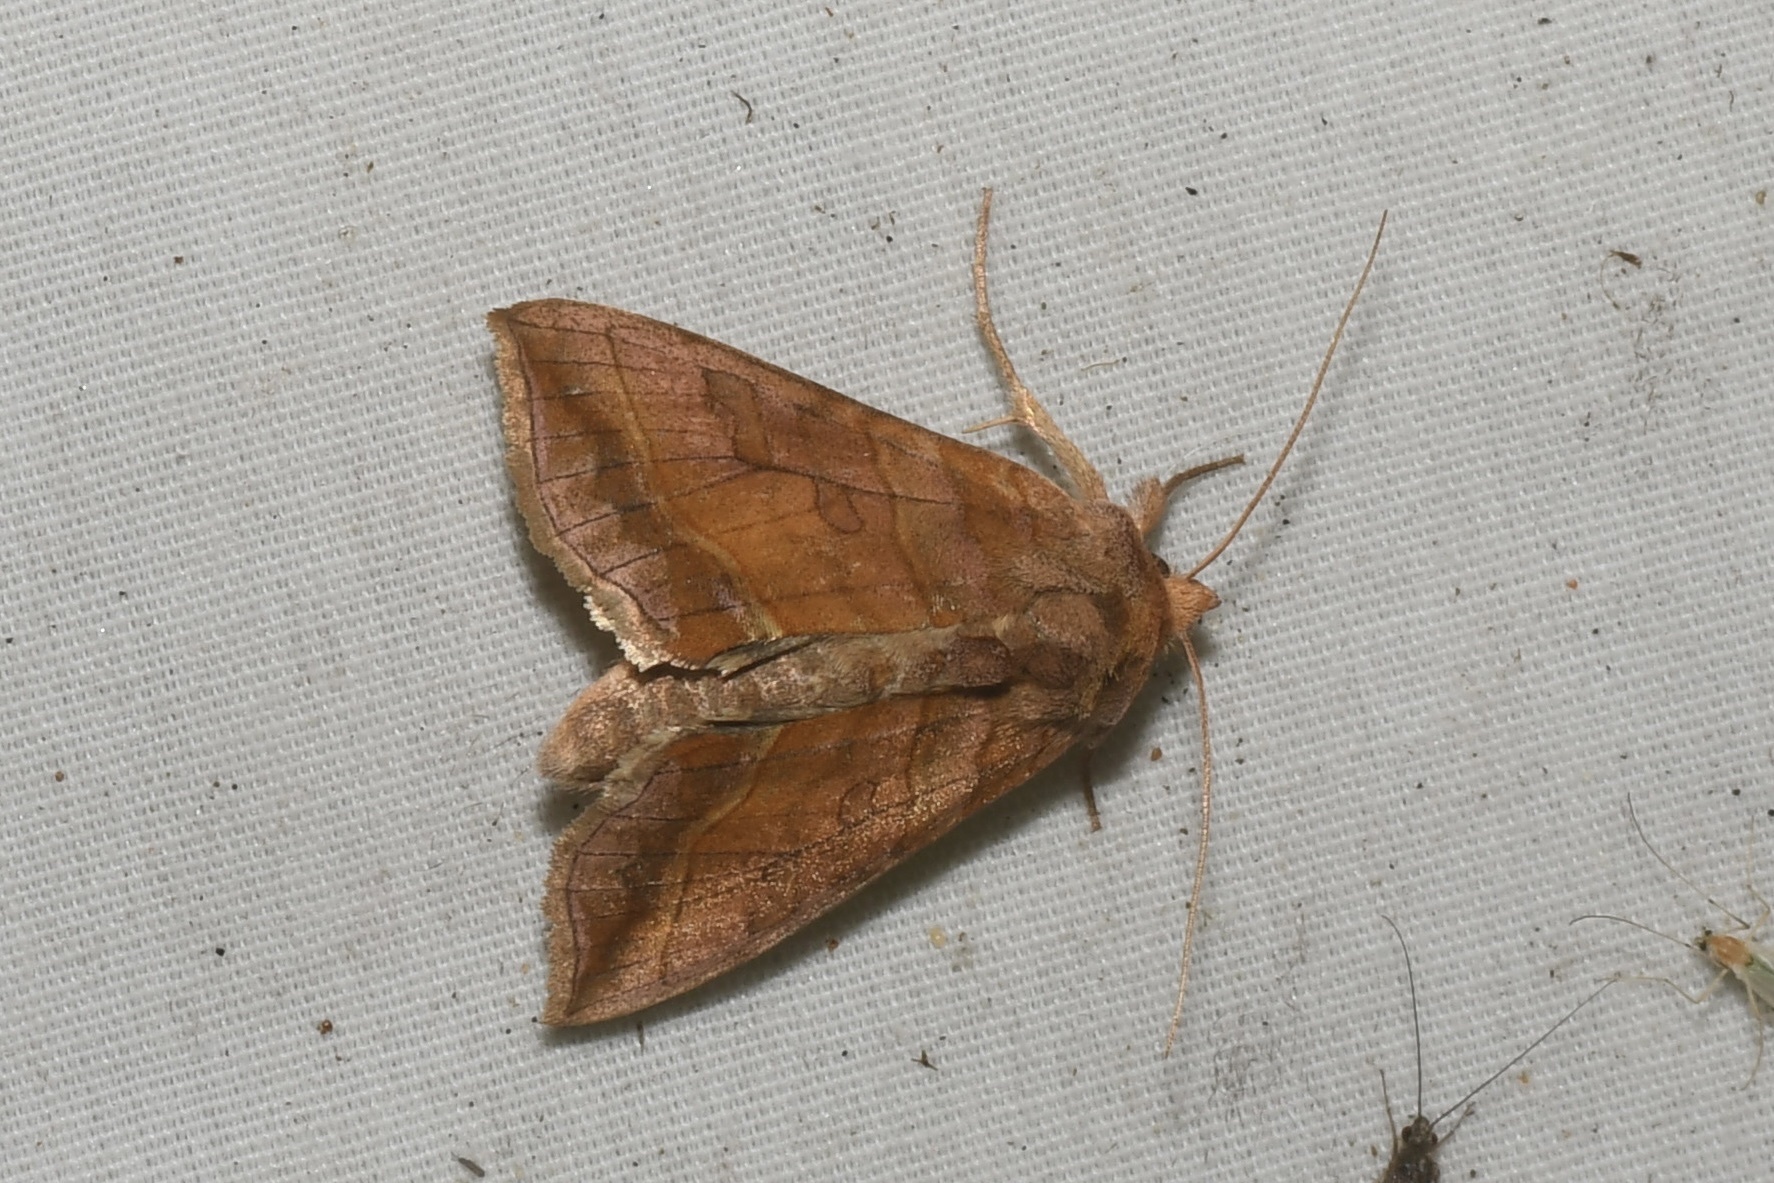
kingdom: Animalia
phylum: Arthropoda
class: Insecta
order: Lepidoptera
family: Noctuidae
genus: Diachrysia
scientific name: Diachrysia aereoides
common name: Dark-spotted looper moth
